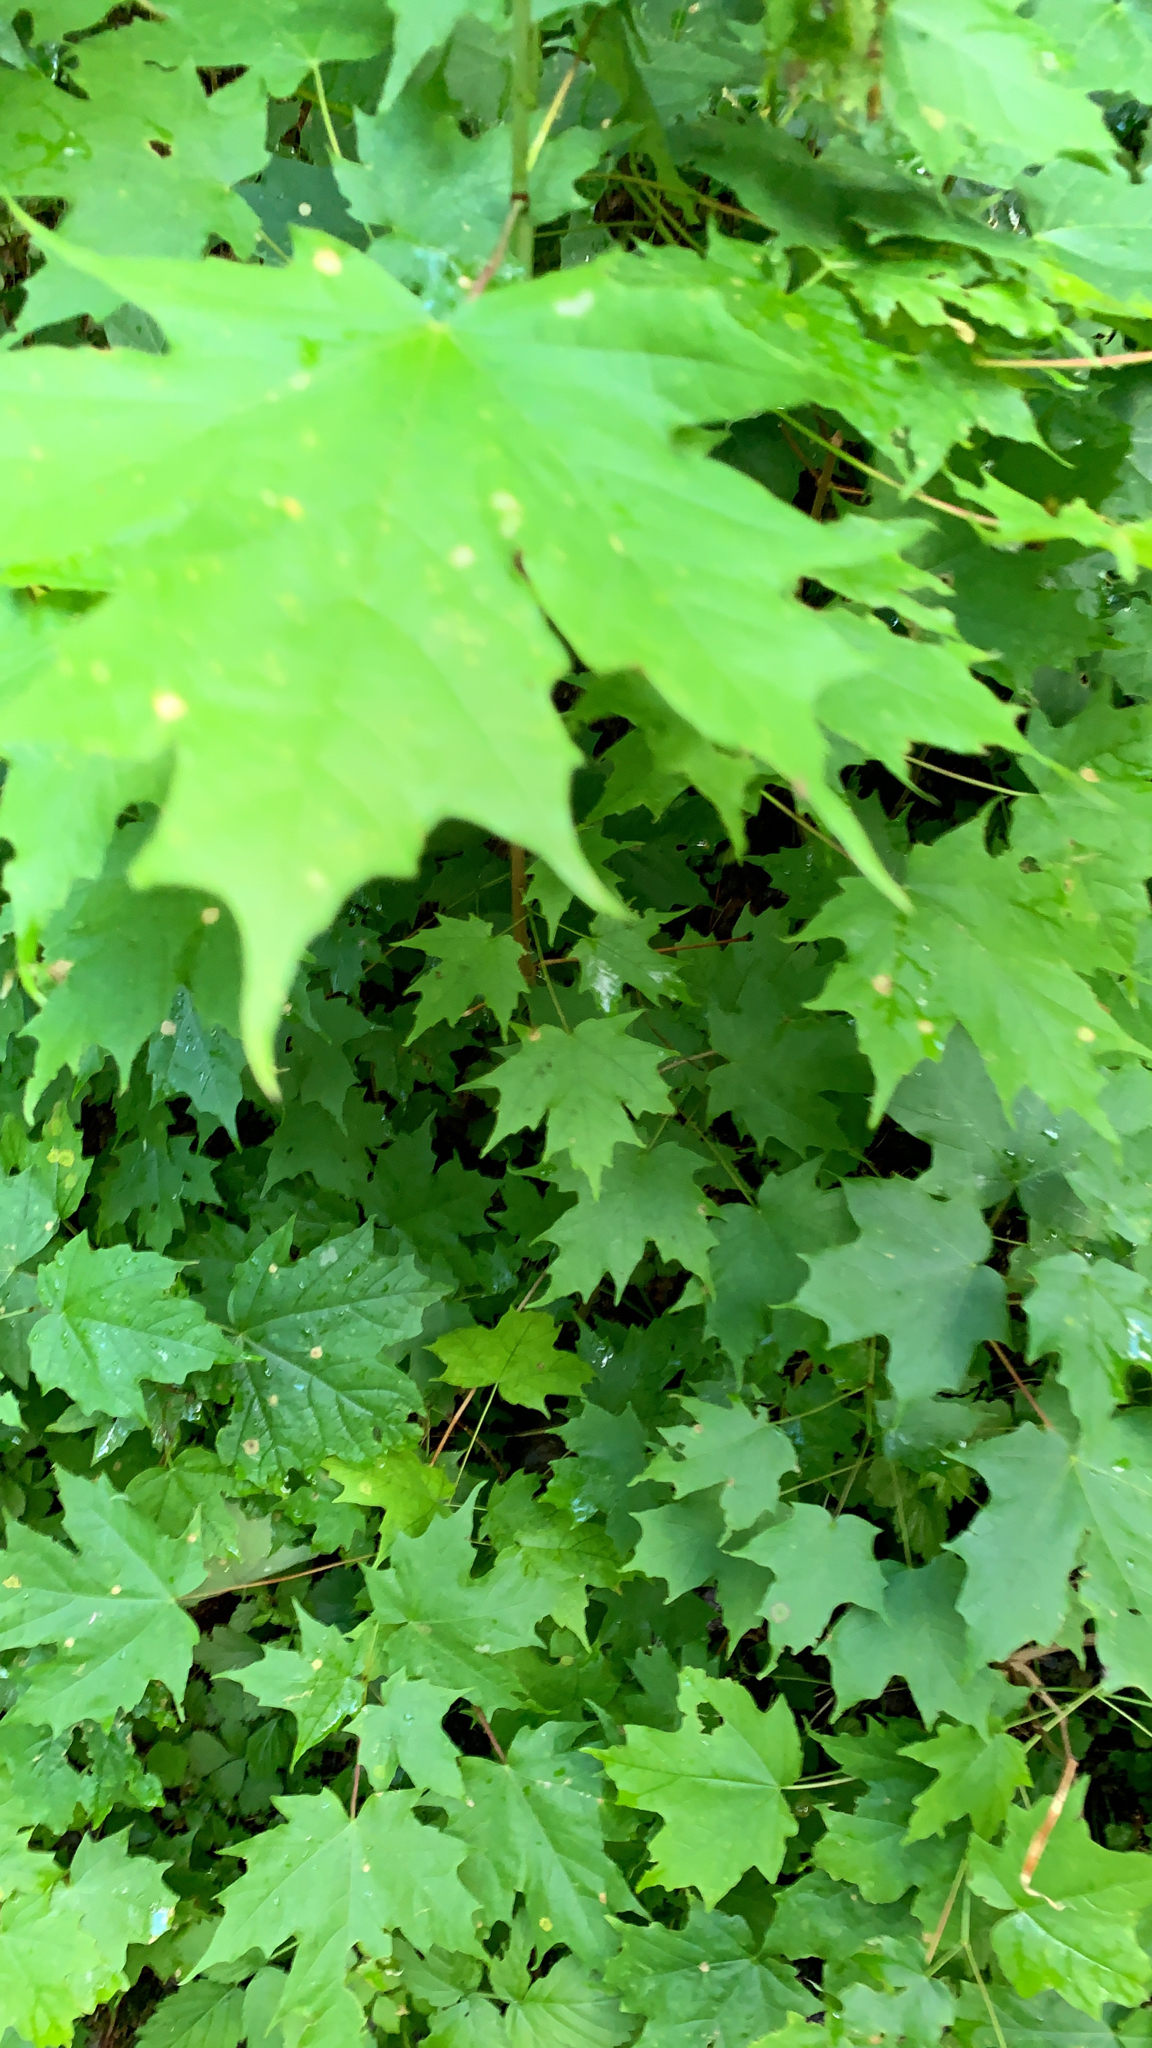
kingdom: Plantae
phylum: Tracheophyta
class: Magnoliopsida
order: Sapindales
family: Sapindaceae
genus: Acer
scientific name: Acer saccharum
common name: Sugar maple
